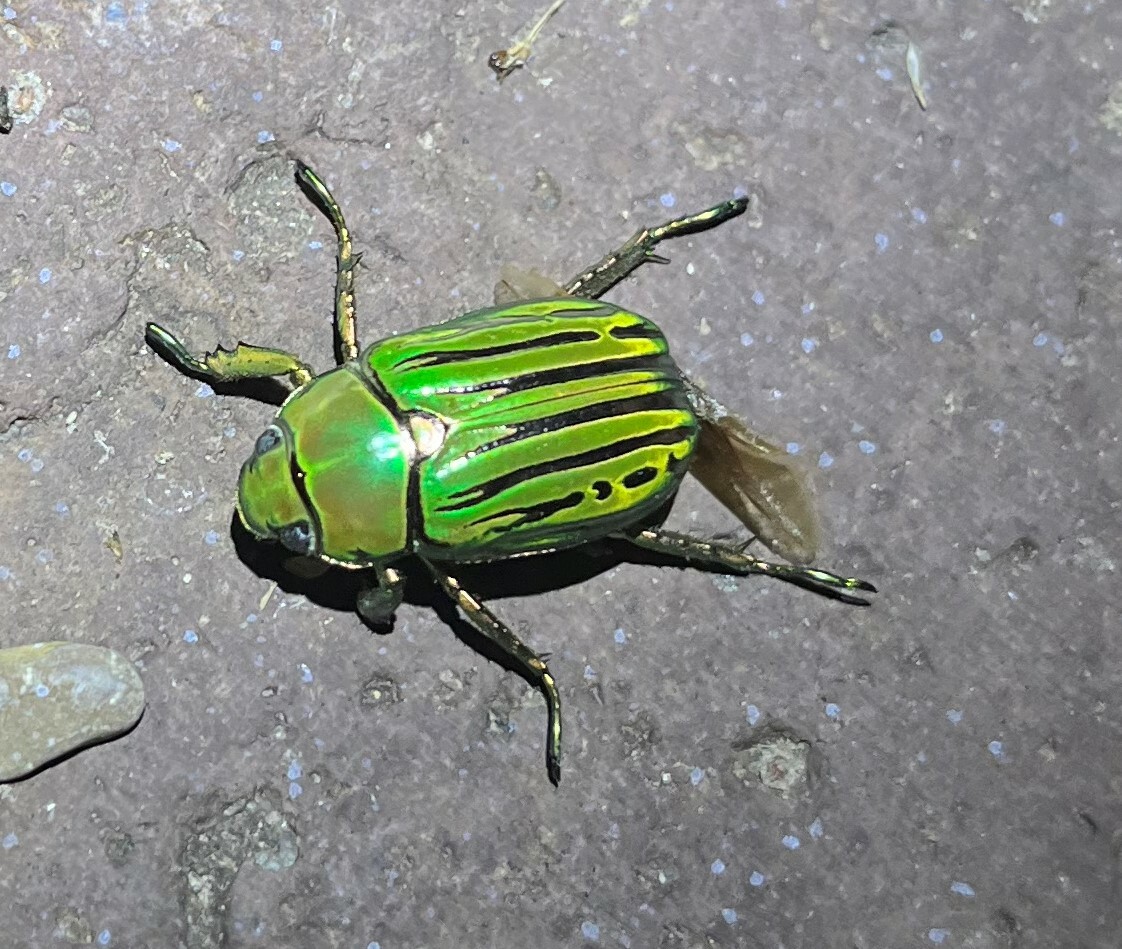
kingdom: Animalia
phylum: Arthropoda
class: Insecta
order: Coleoptera
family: Scarabaeidae
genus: Chrysina
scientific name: Chrysina gloriosa
